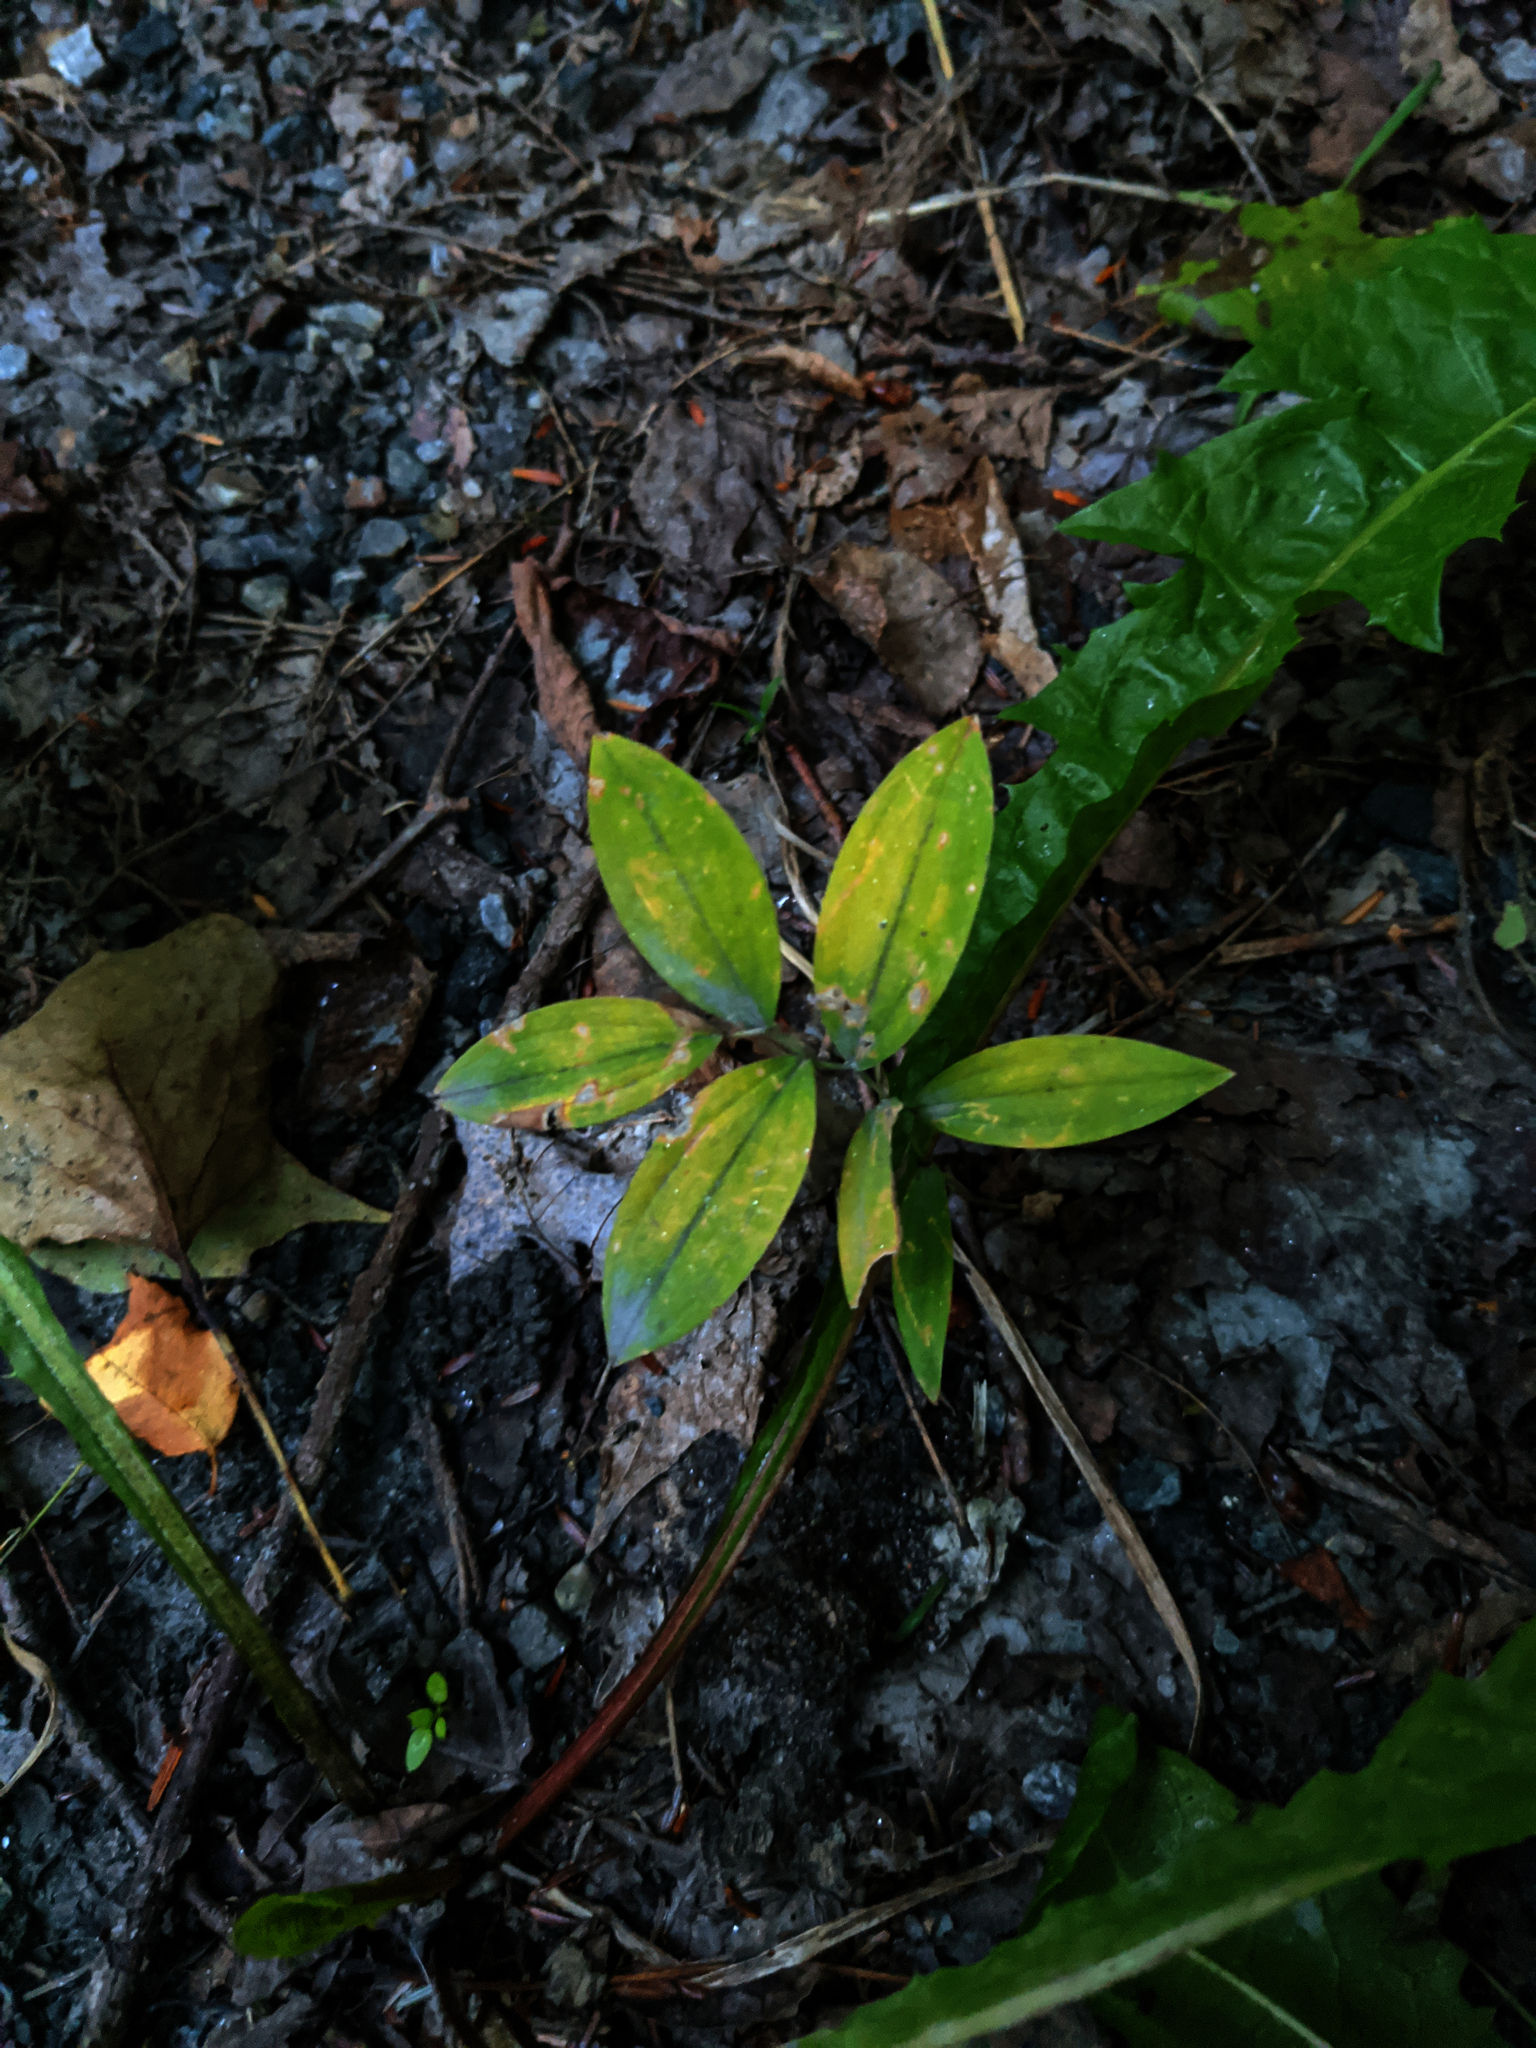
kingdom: Plantae
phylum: Tracheophyta
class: Liliopsida
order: Liliales
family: Colchicaceae
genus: Uvularia
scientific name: Uvularia sessilifolia
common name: Straw-lily
